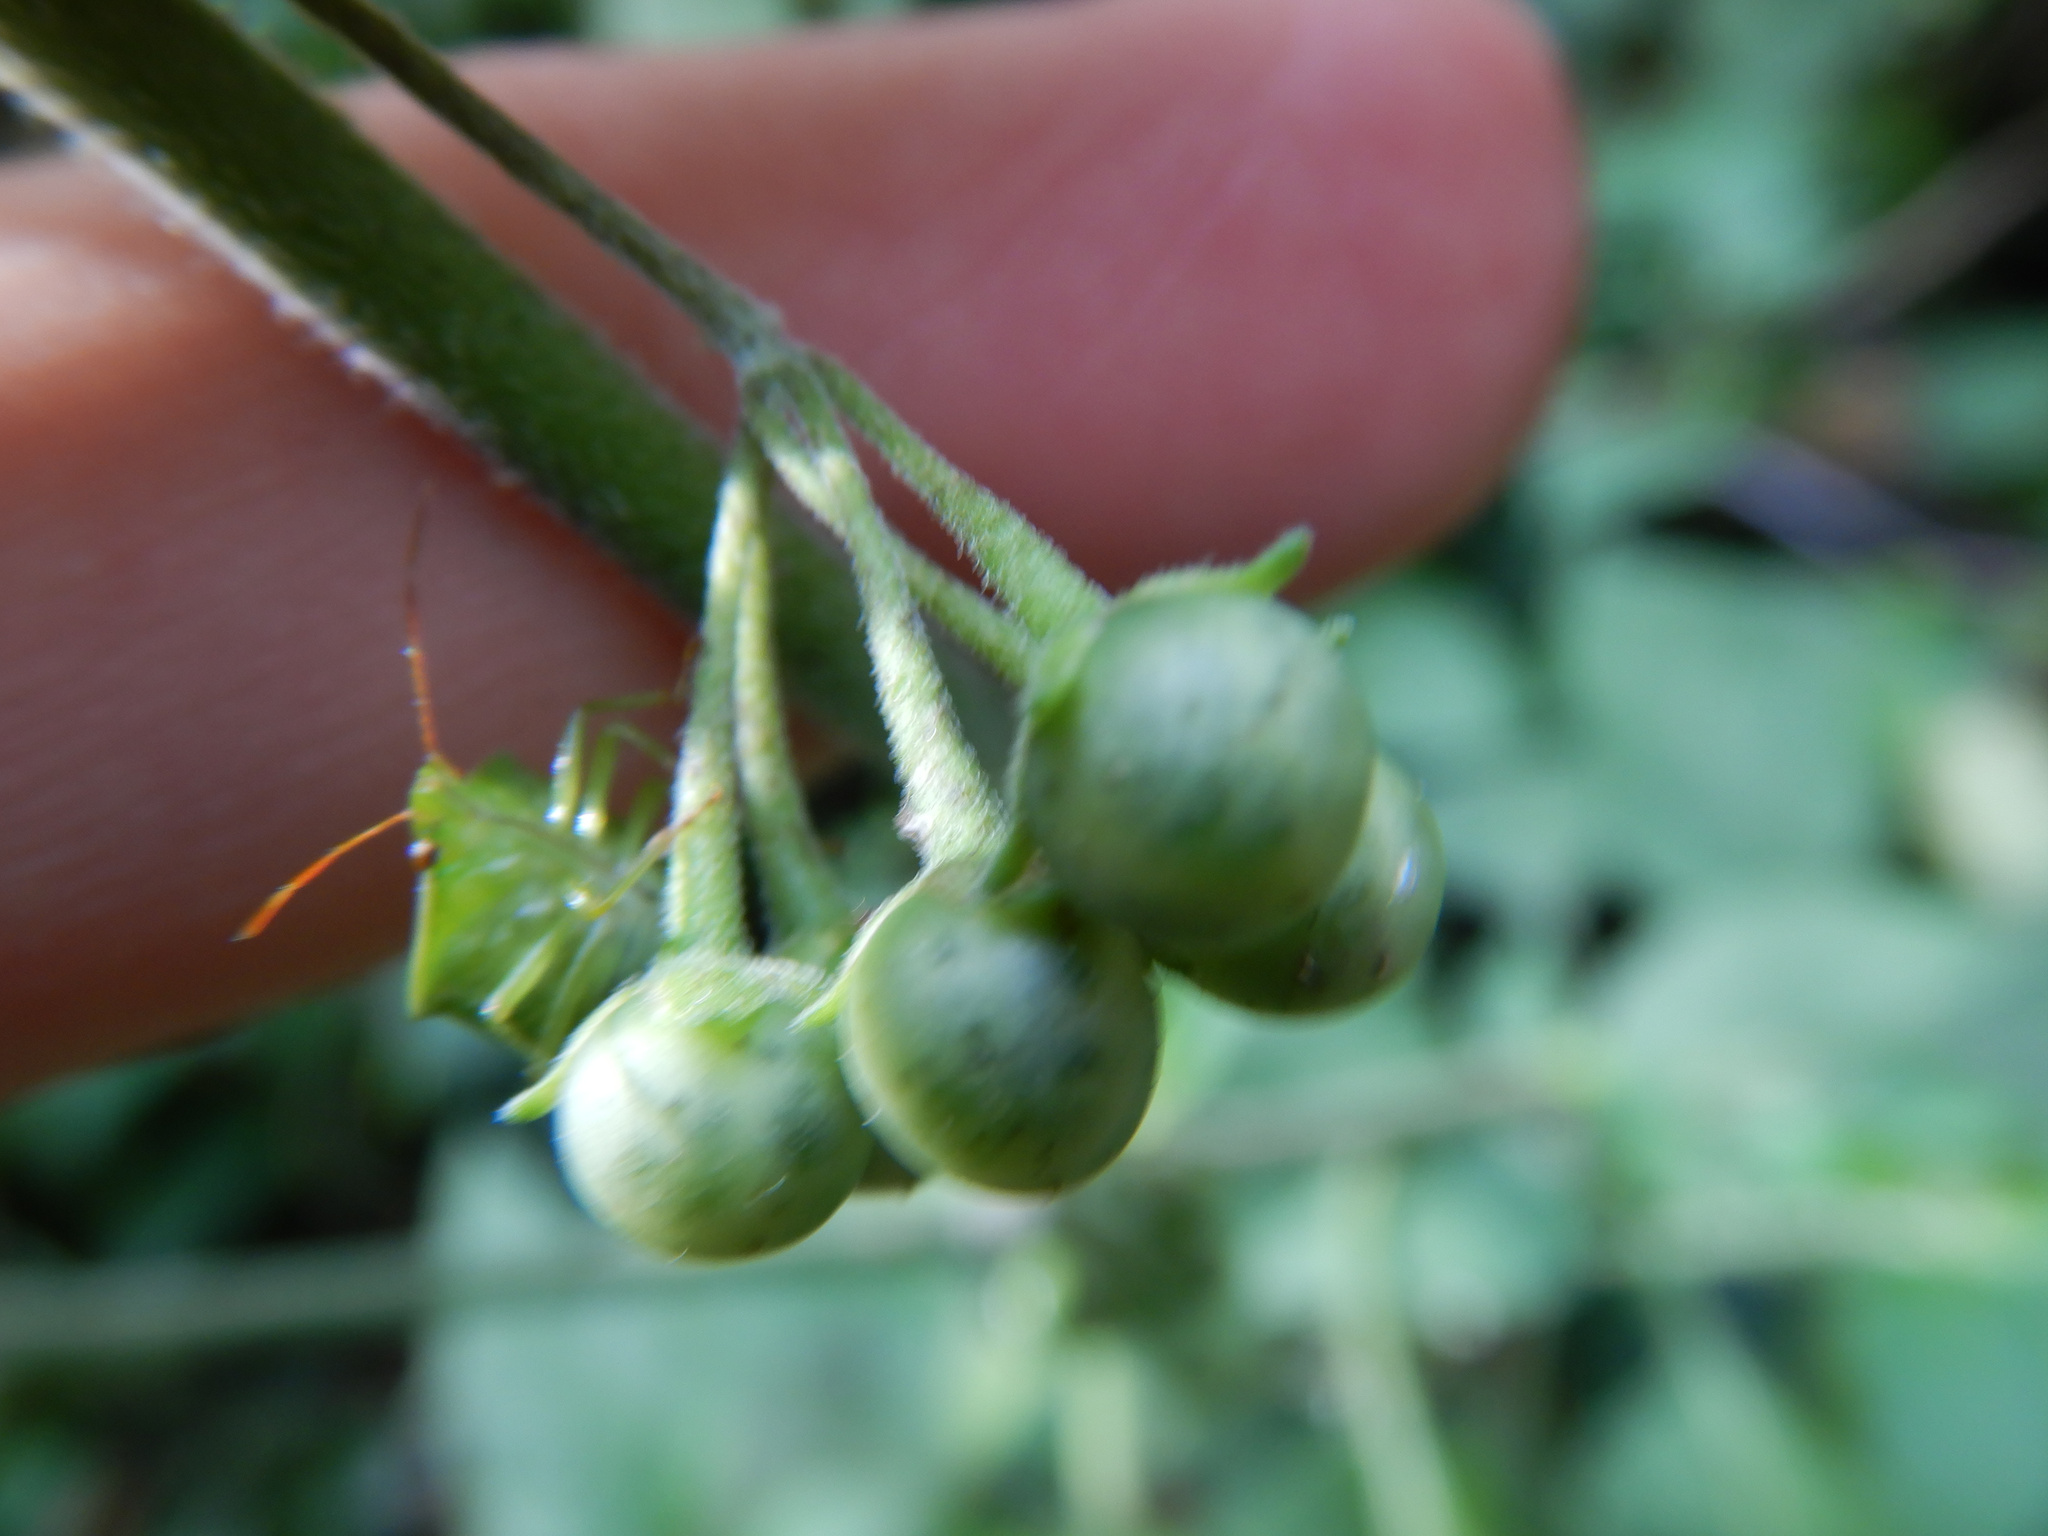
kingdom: Plantae
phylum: Tracheophyta
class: Magnoliopsida
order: Solanales
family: Solanaceae
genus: Solanum
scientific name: Solanum chenopodioides
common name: Tall nightshade
